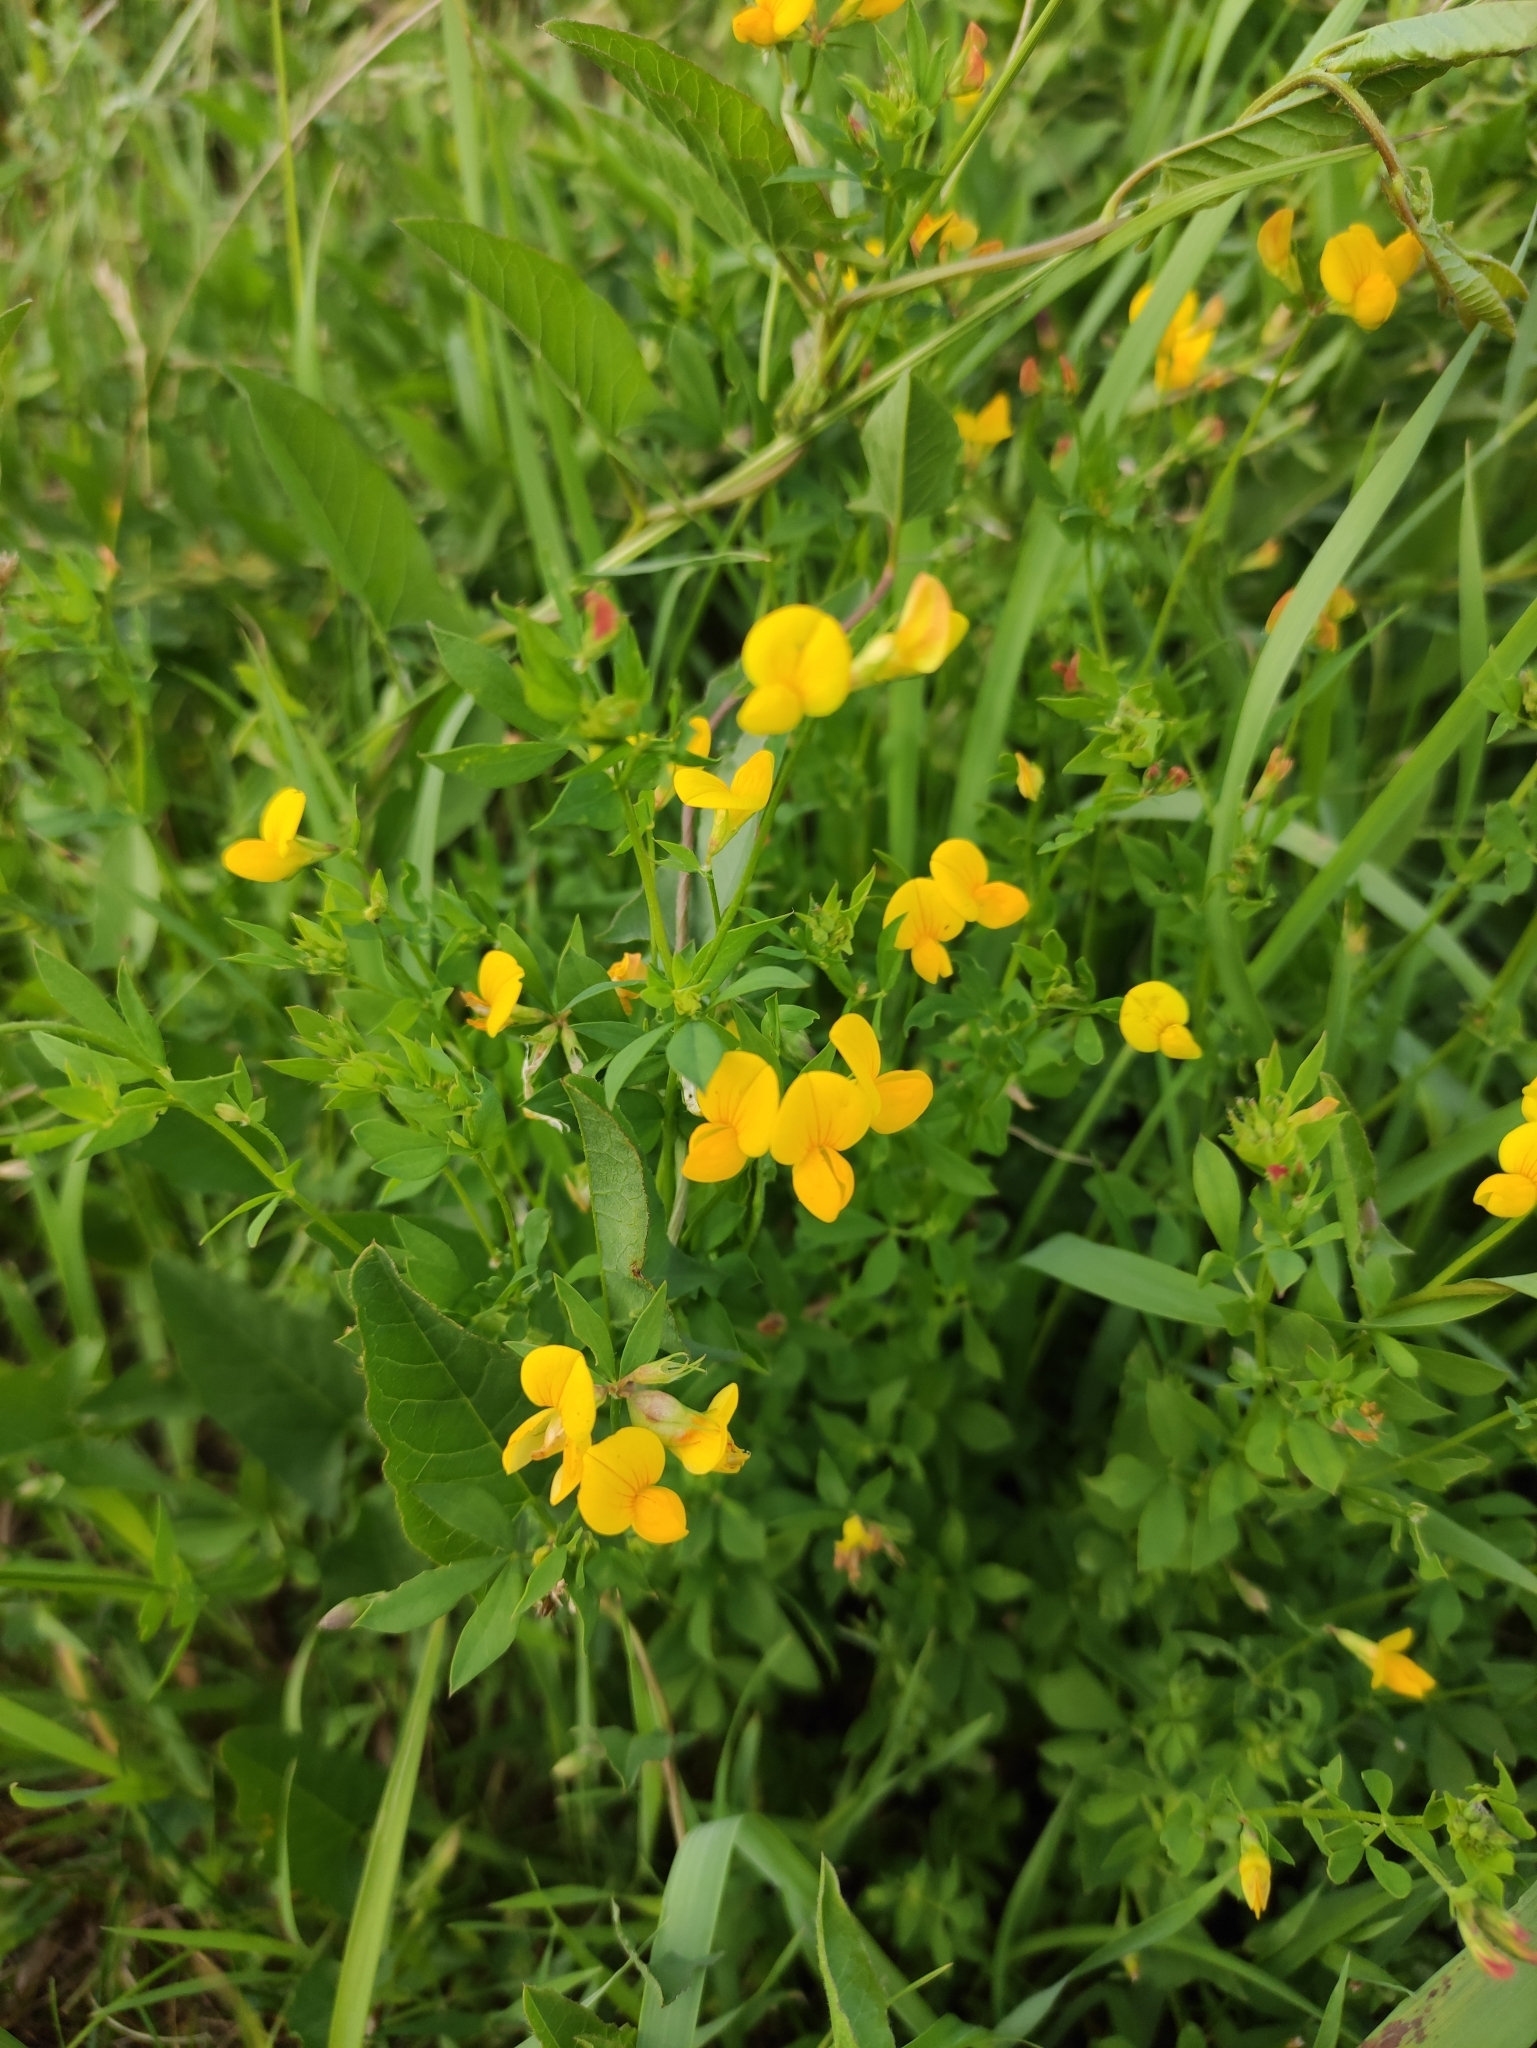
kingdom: Plantae
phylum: Tracheophyta
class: Magnoliopsida
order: Fabales
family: Fabaceae
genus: Lotus
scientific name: Lotus corniculatus
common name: Common bird's-foot-trefoil
